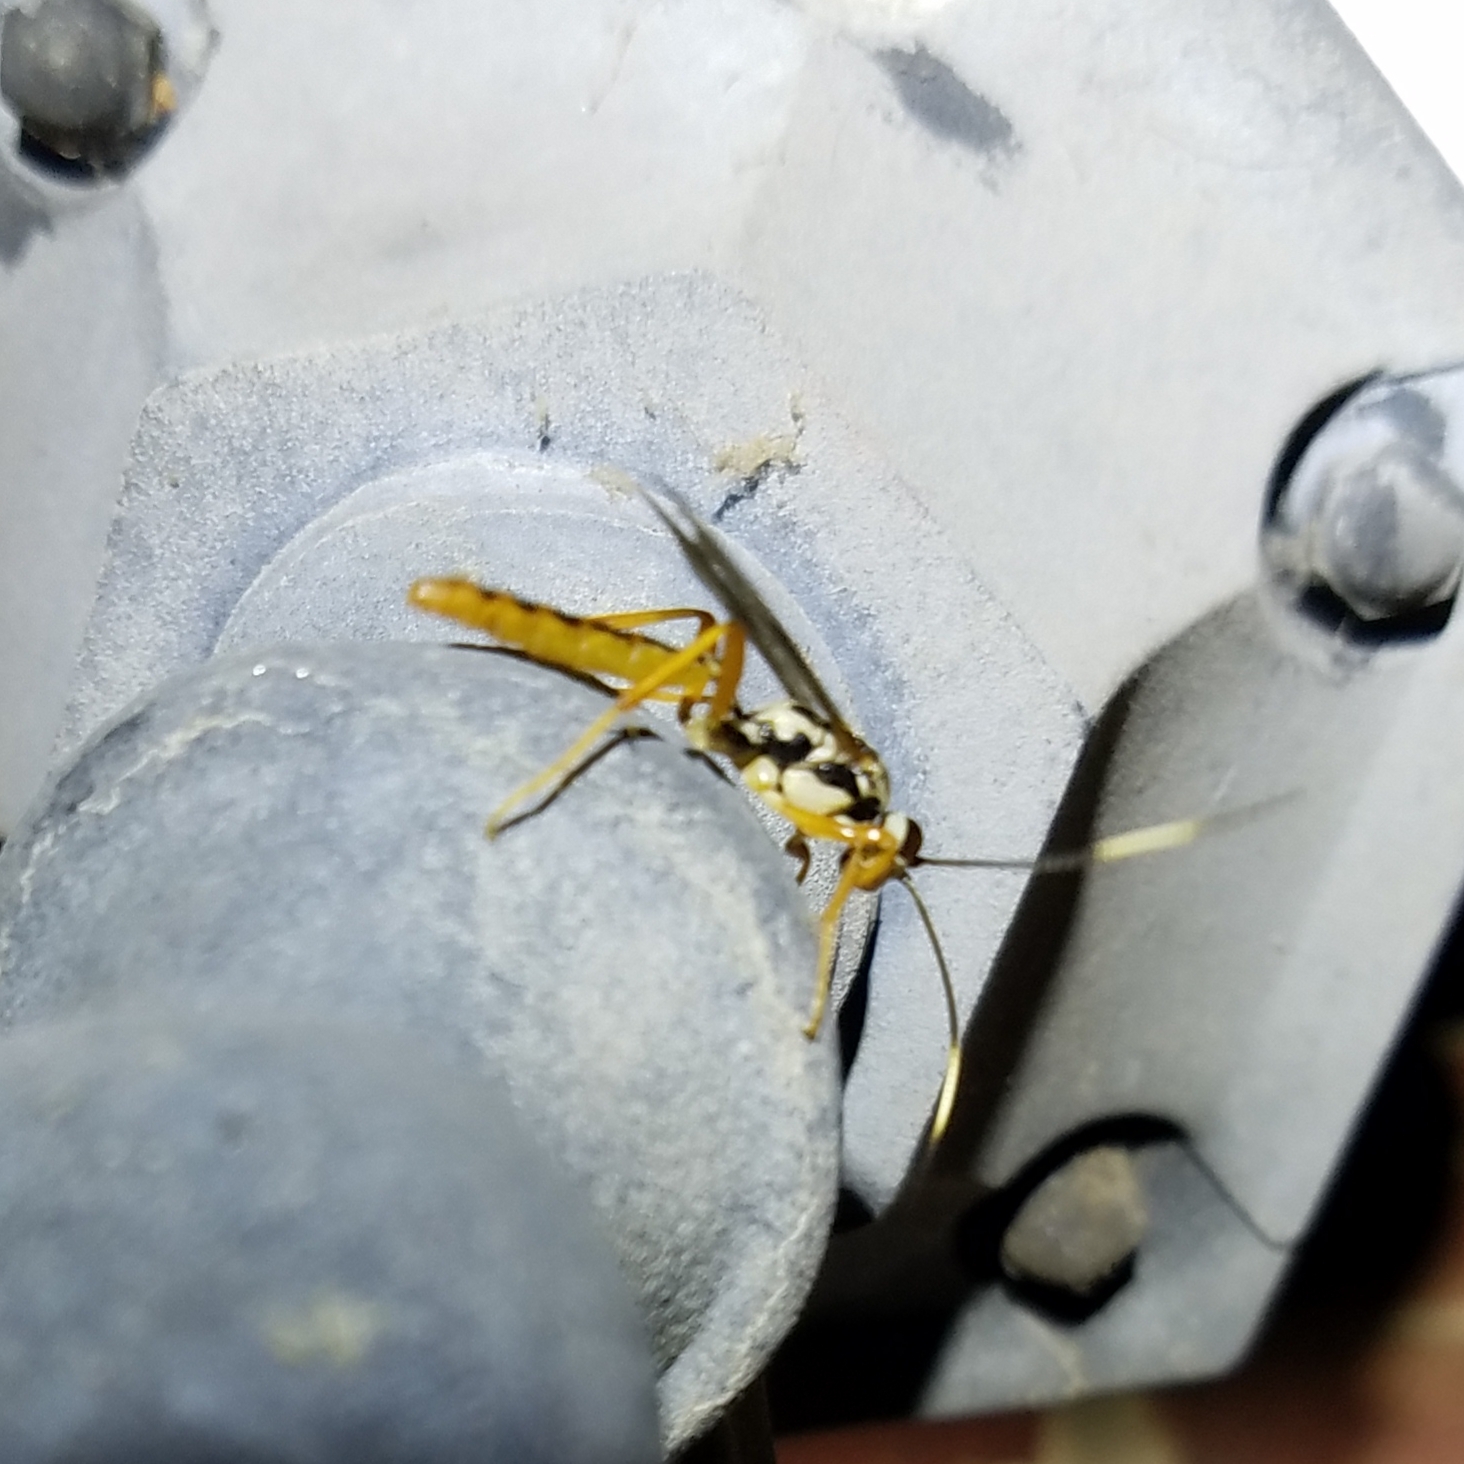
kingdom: Animalia
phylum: Arthropoda
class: Insecta
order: Hymenoptera
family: Ichneumonidae
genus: Cratichneumon
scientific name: Cratichneumon w-album
